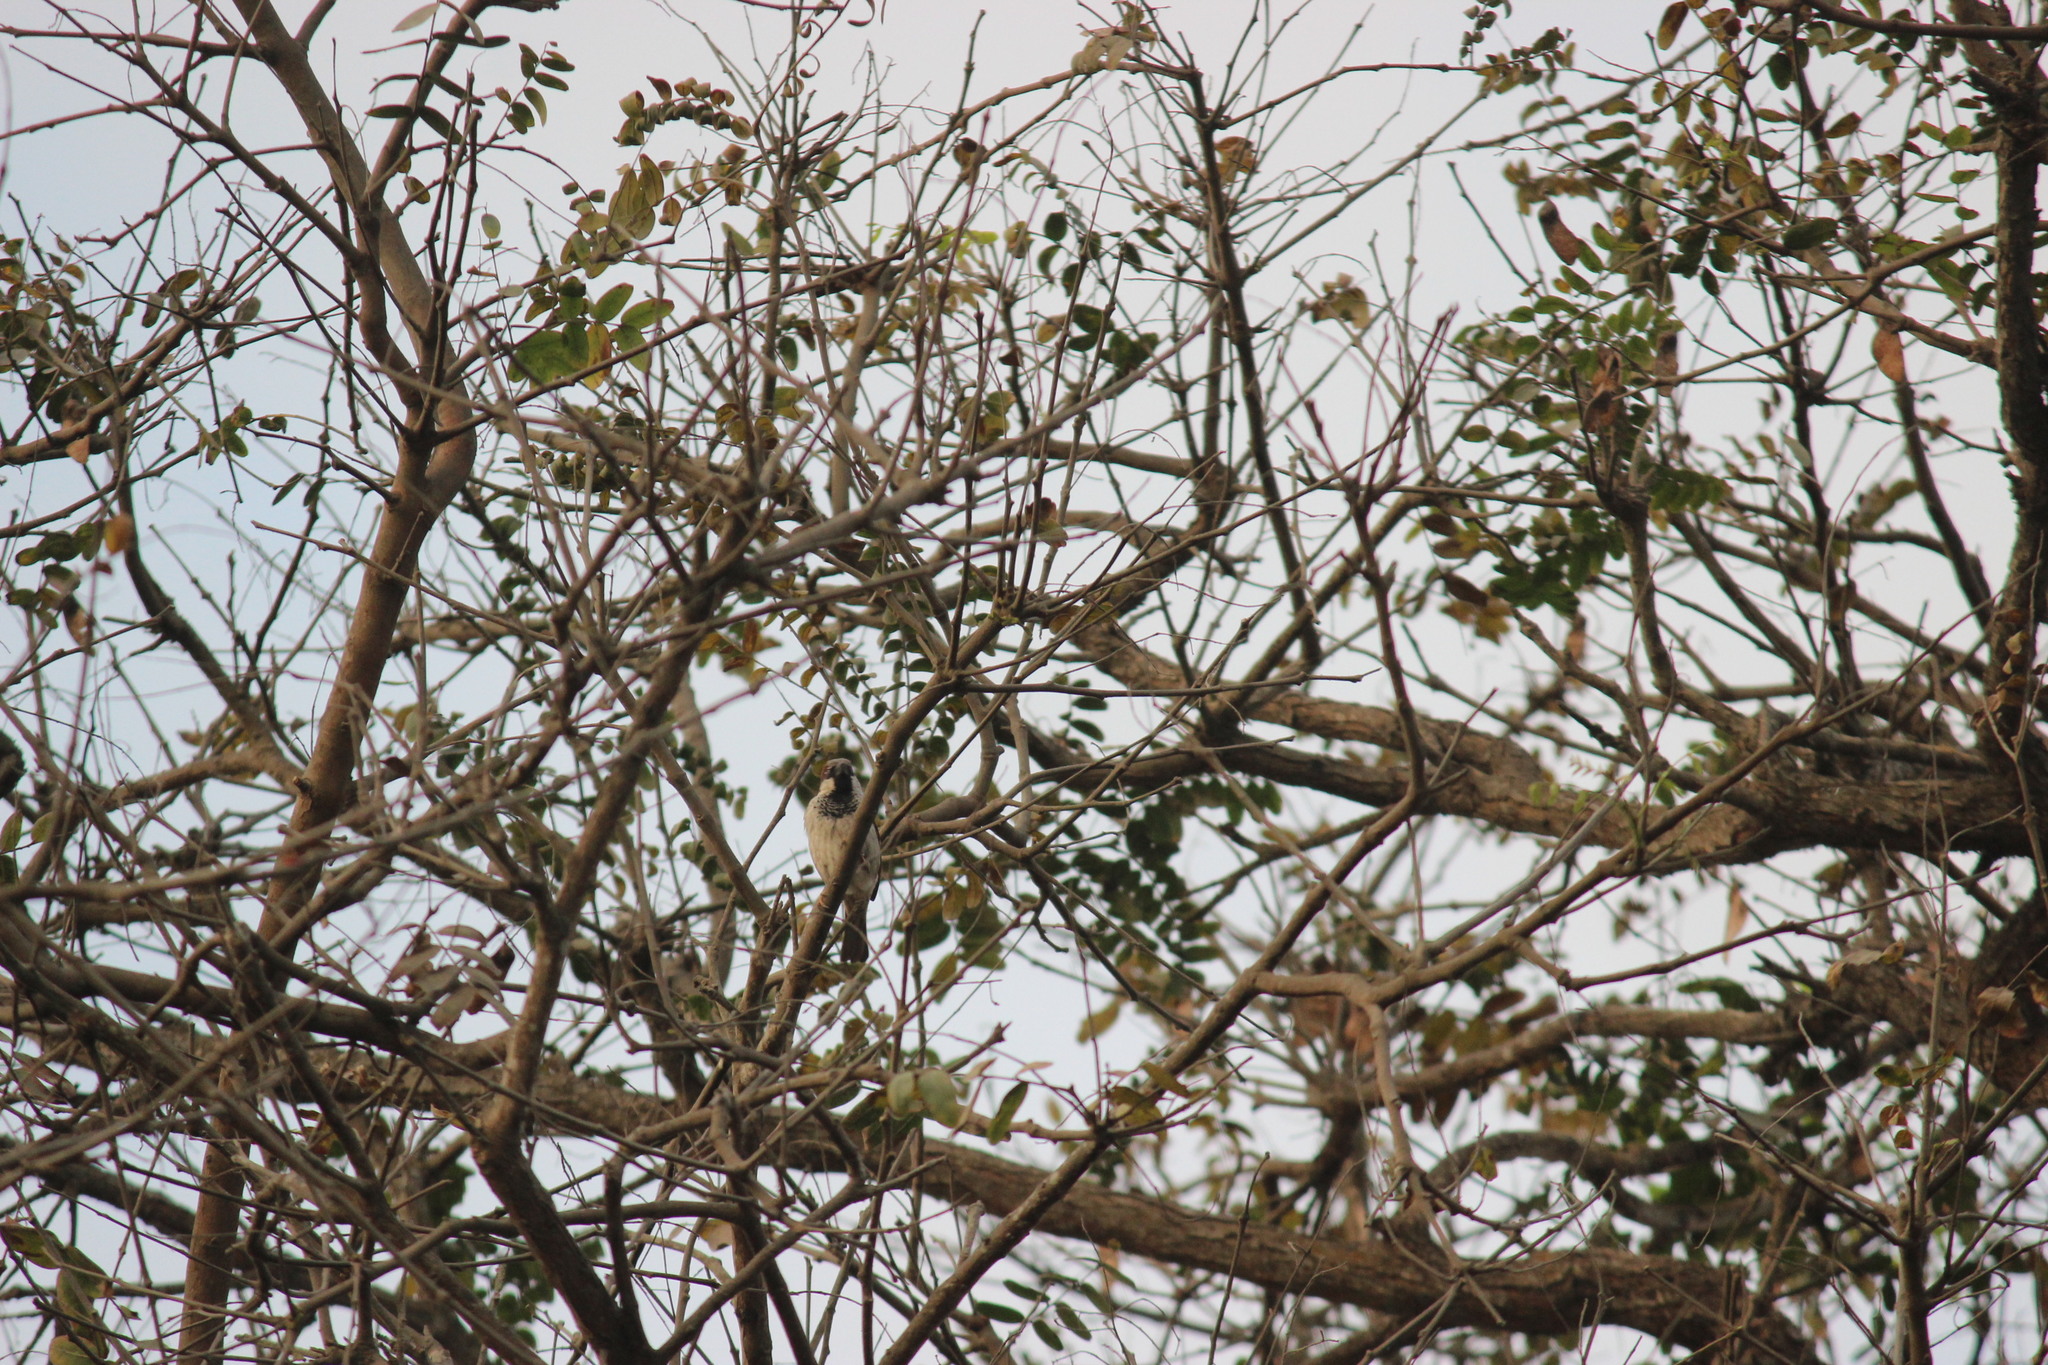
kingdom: Animalia
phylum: Chordata
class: Aves
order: Passeriformes
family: Passeridae
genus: Passer
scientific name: Passer domesticus
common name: House sparrow
